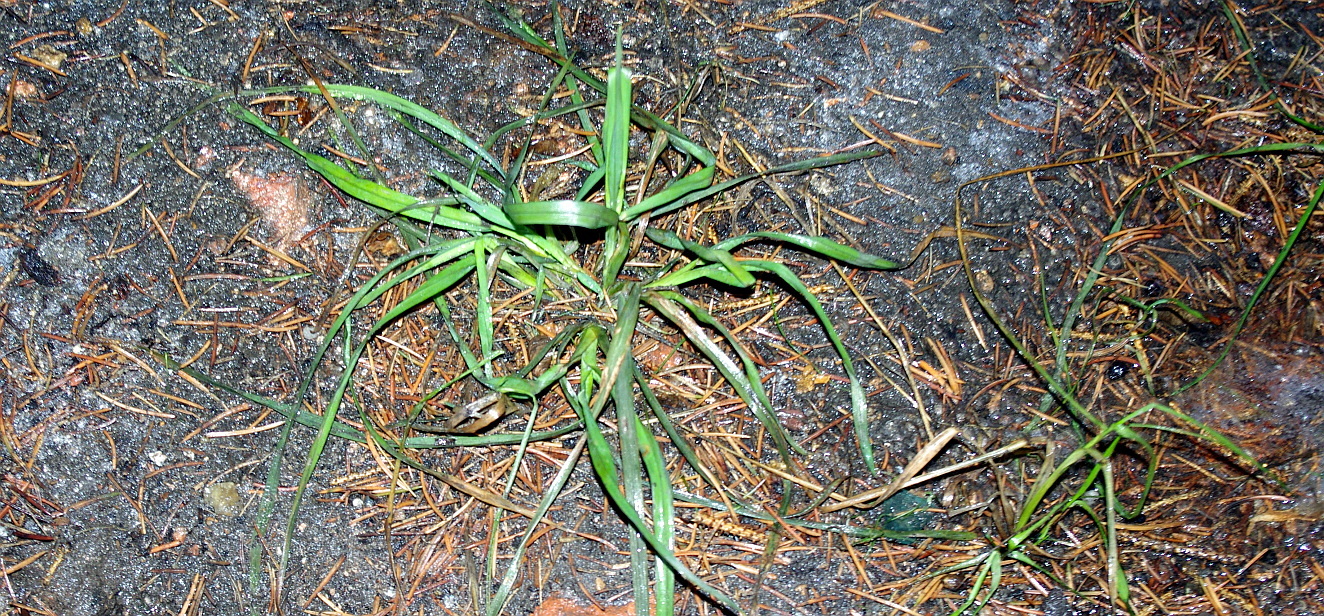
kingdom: Plantae
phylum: Tracheophyta
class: Liliopsida
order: Poales
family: Poaceae
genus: Dactylis
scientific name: Dactylis glomerata
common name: Orchardgrass
